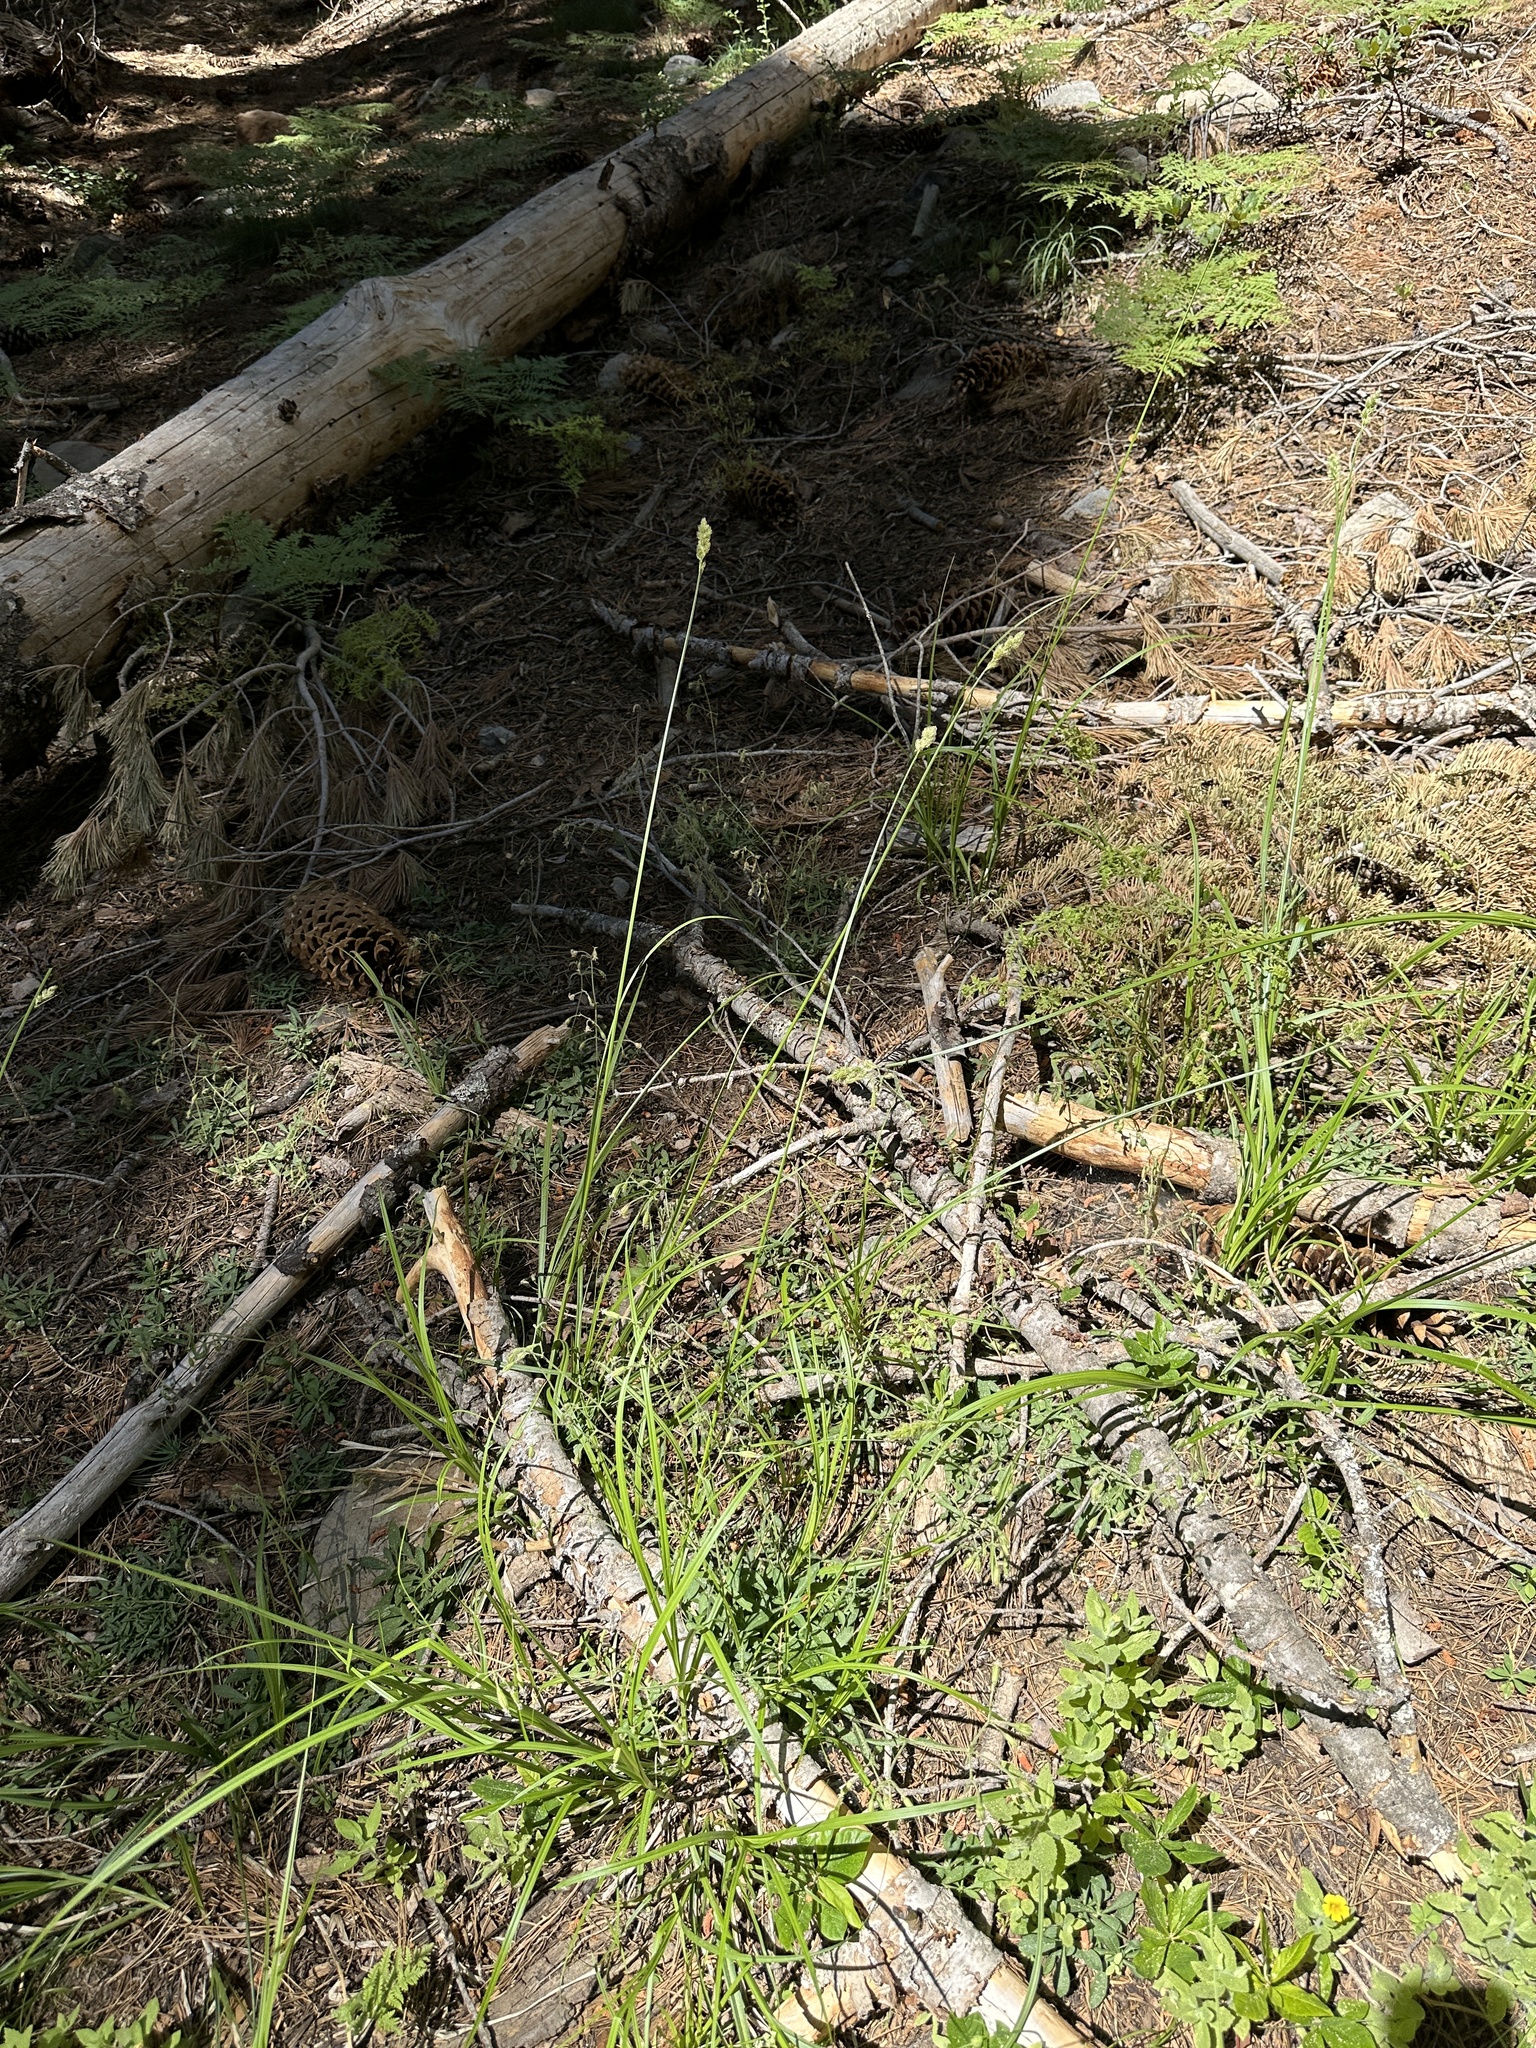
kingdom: Plantae
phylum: Tracheophyta
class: Liliopsida
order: Poales
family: Cyperaceae
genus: Carex
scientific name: Carex fracta
